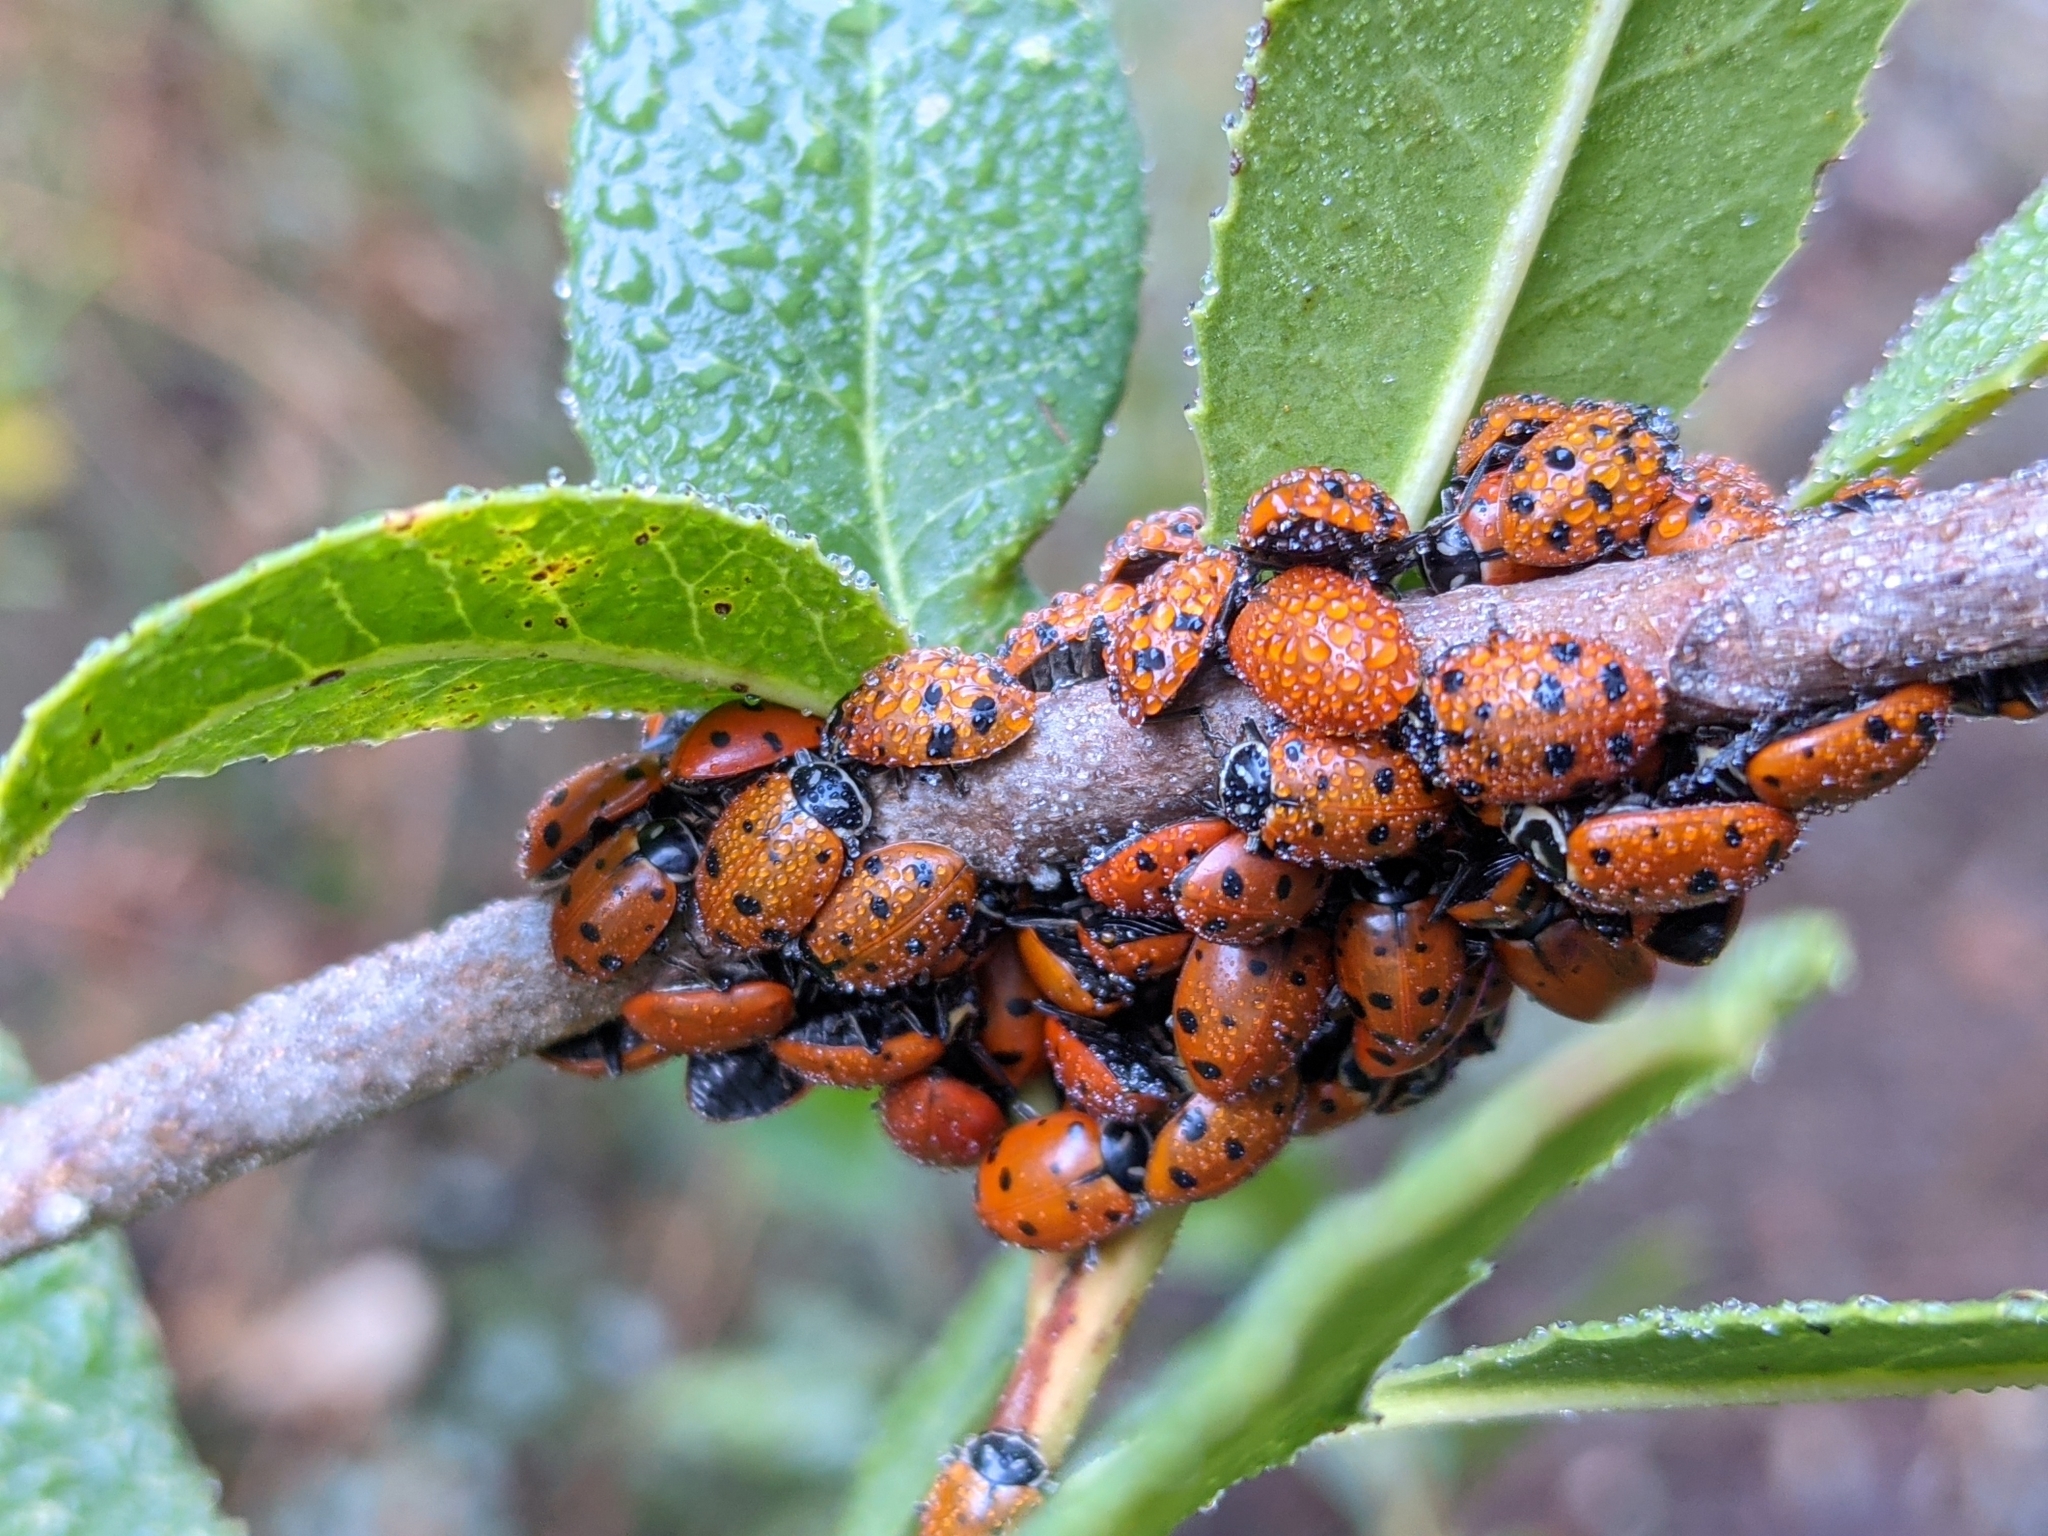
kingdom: Animalia
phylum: Arthropoda
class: Insecta
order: Coleoptera
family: Coccinellidae
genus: Hippodamia
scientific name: Hippodamia convergens
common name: Convergent lady beetle
